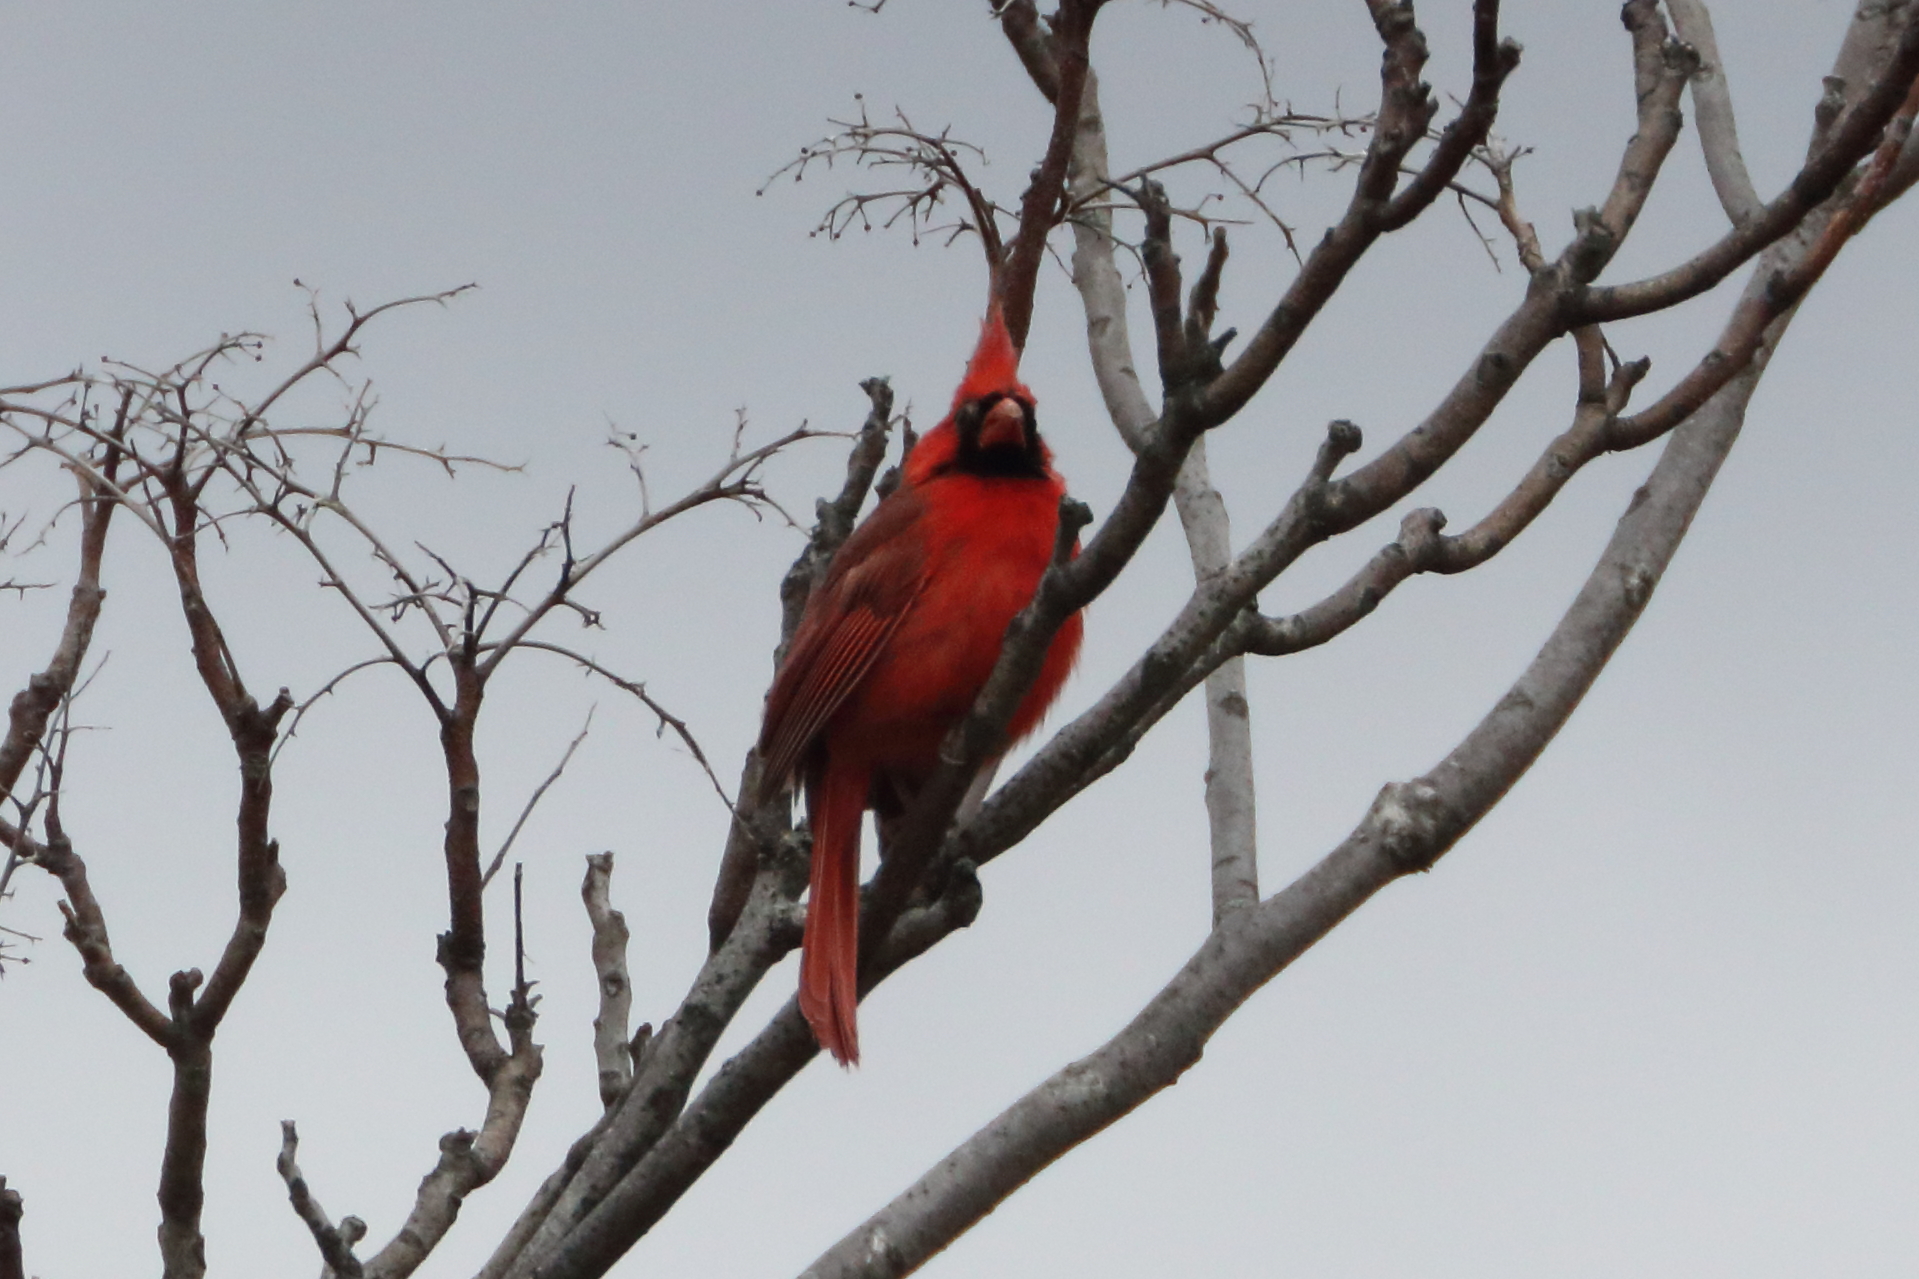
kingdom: Animalia
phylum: Chordata
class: Aves
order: Passeriformes
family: Cardinalidae
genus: Cardinalis
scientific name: Cardinalis cardinalis
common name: Northern cardinal
